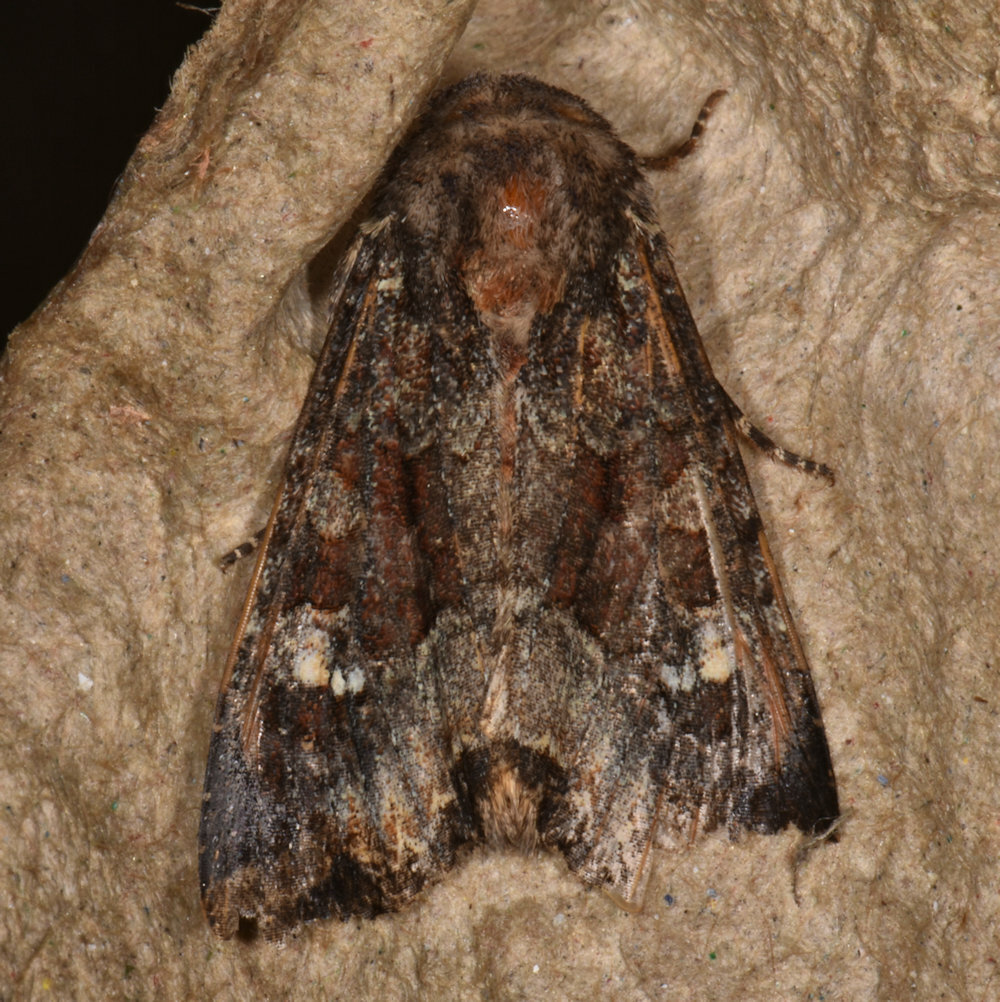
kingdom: Animalia
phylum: Arthropoda
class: Insecta
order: Lepidoptera
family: Noctuidae
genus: Apamea
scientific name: Apamea amputatrix
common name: Yellow-headed cutworm moth
